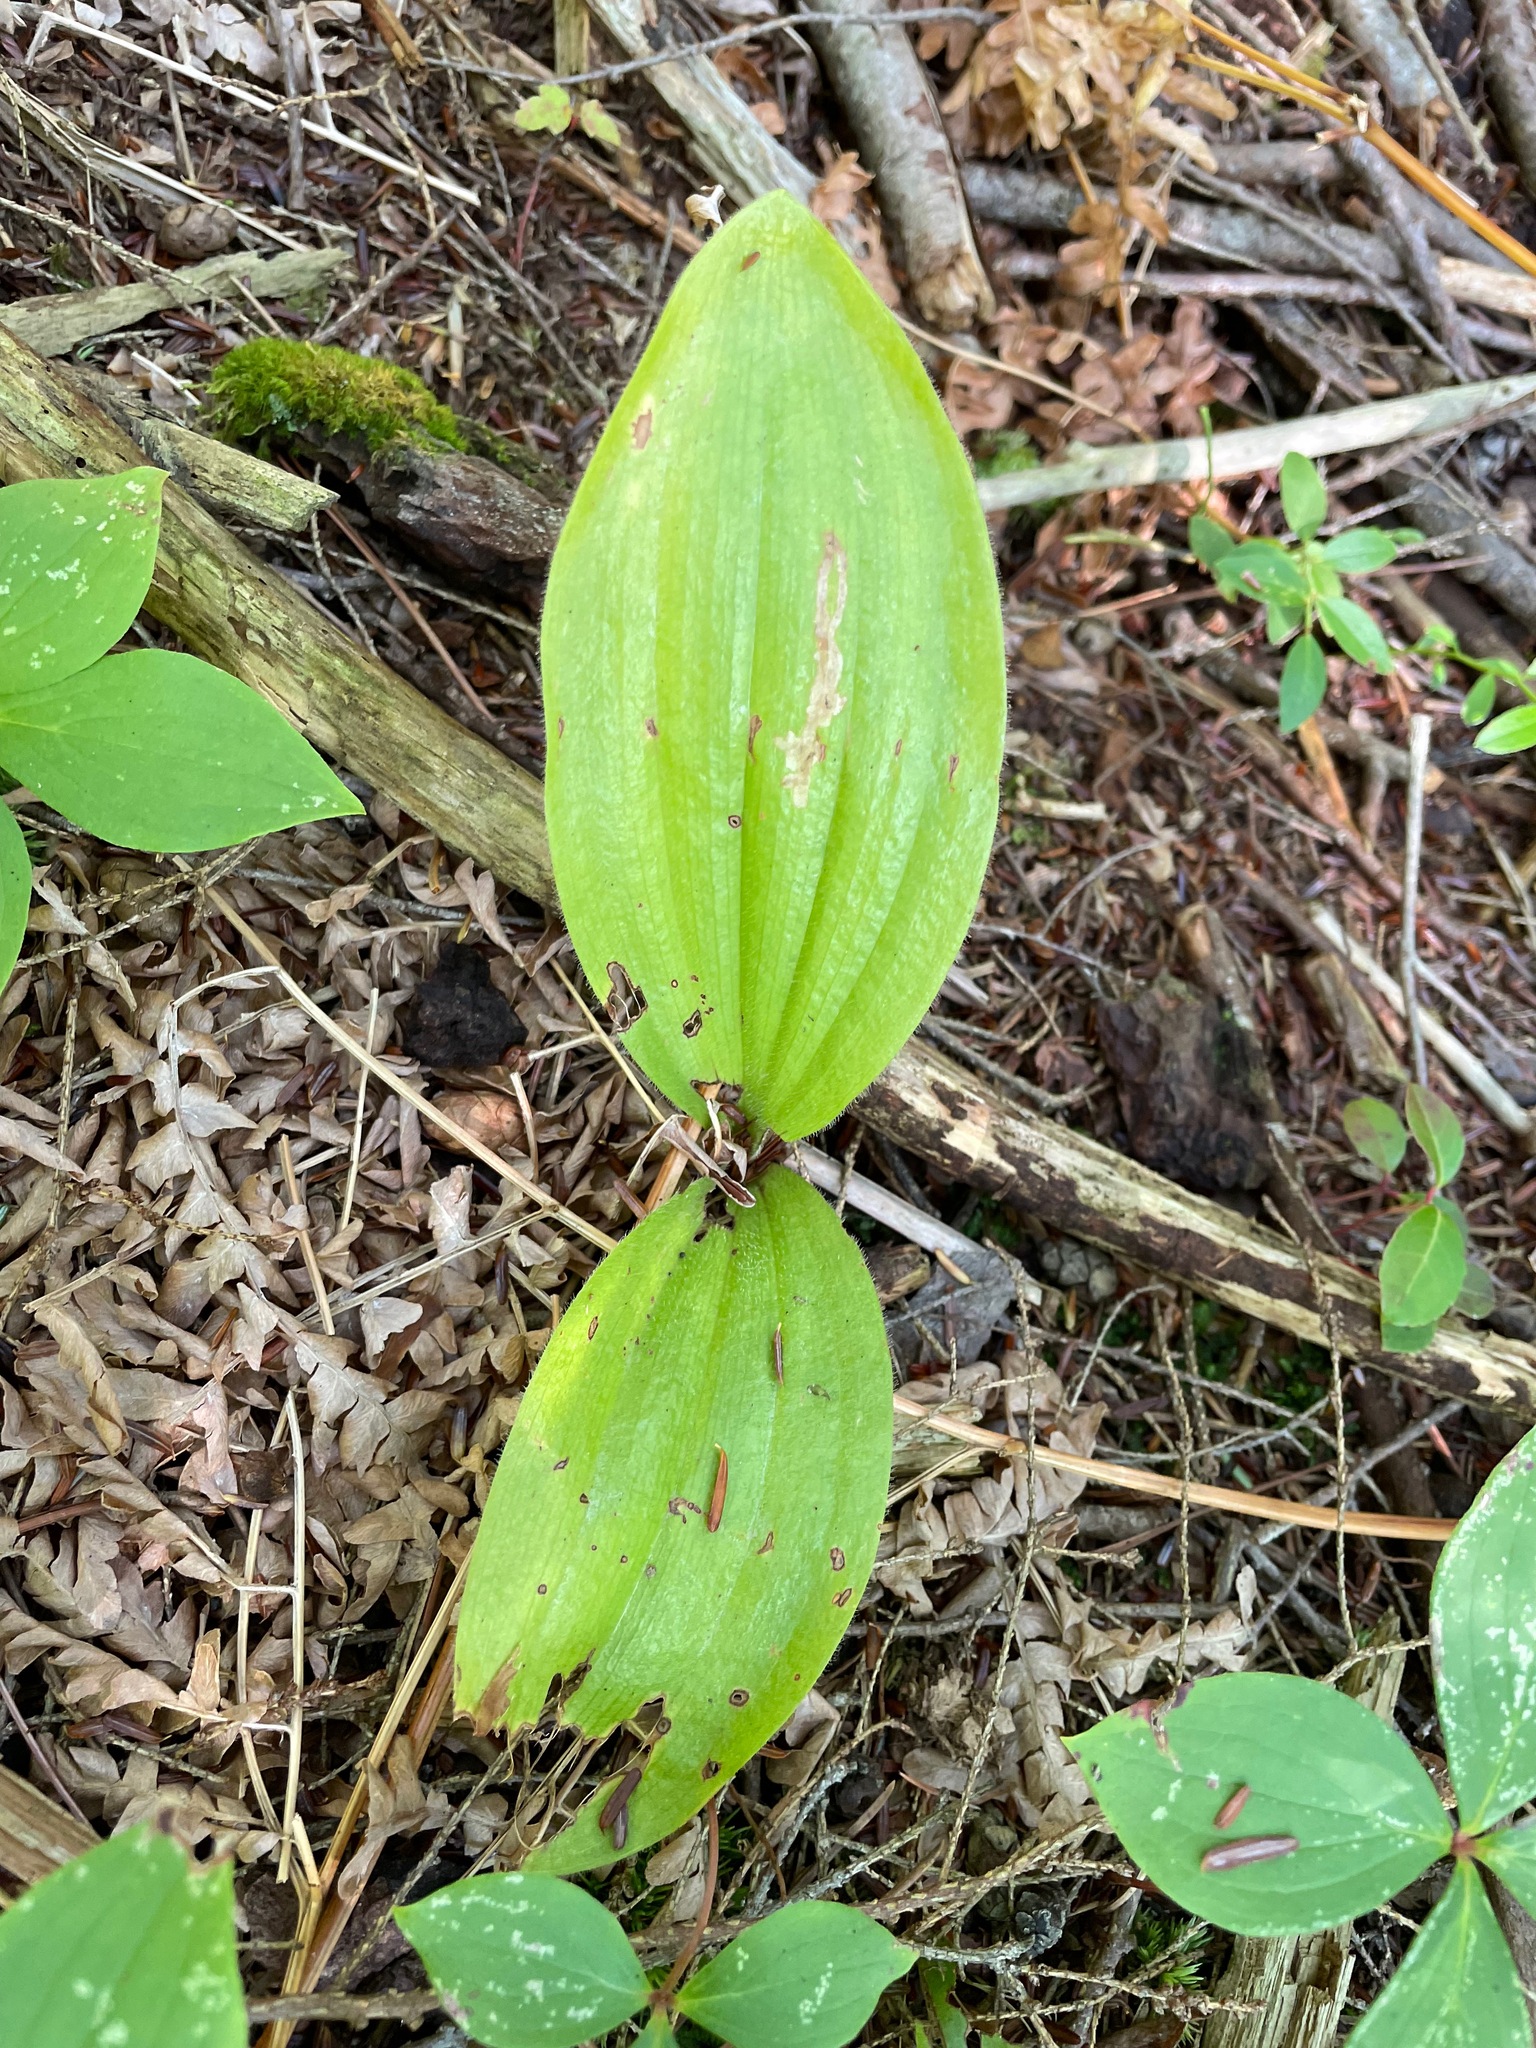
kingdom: Plantae
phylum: Tracheophyta
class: Liliopsida
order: Asparagales
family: Orchidaceae
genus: Cypripedium
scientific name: Cypripedium acaule
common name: Pink lady's-slipper
